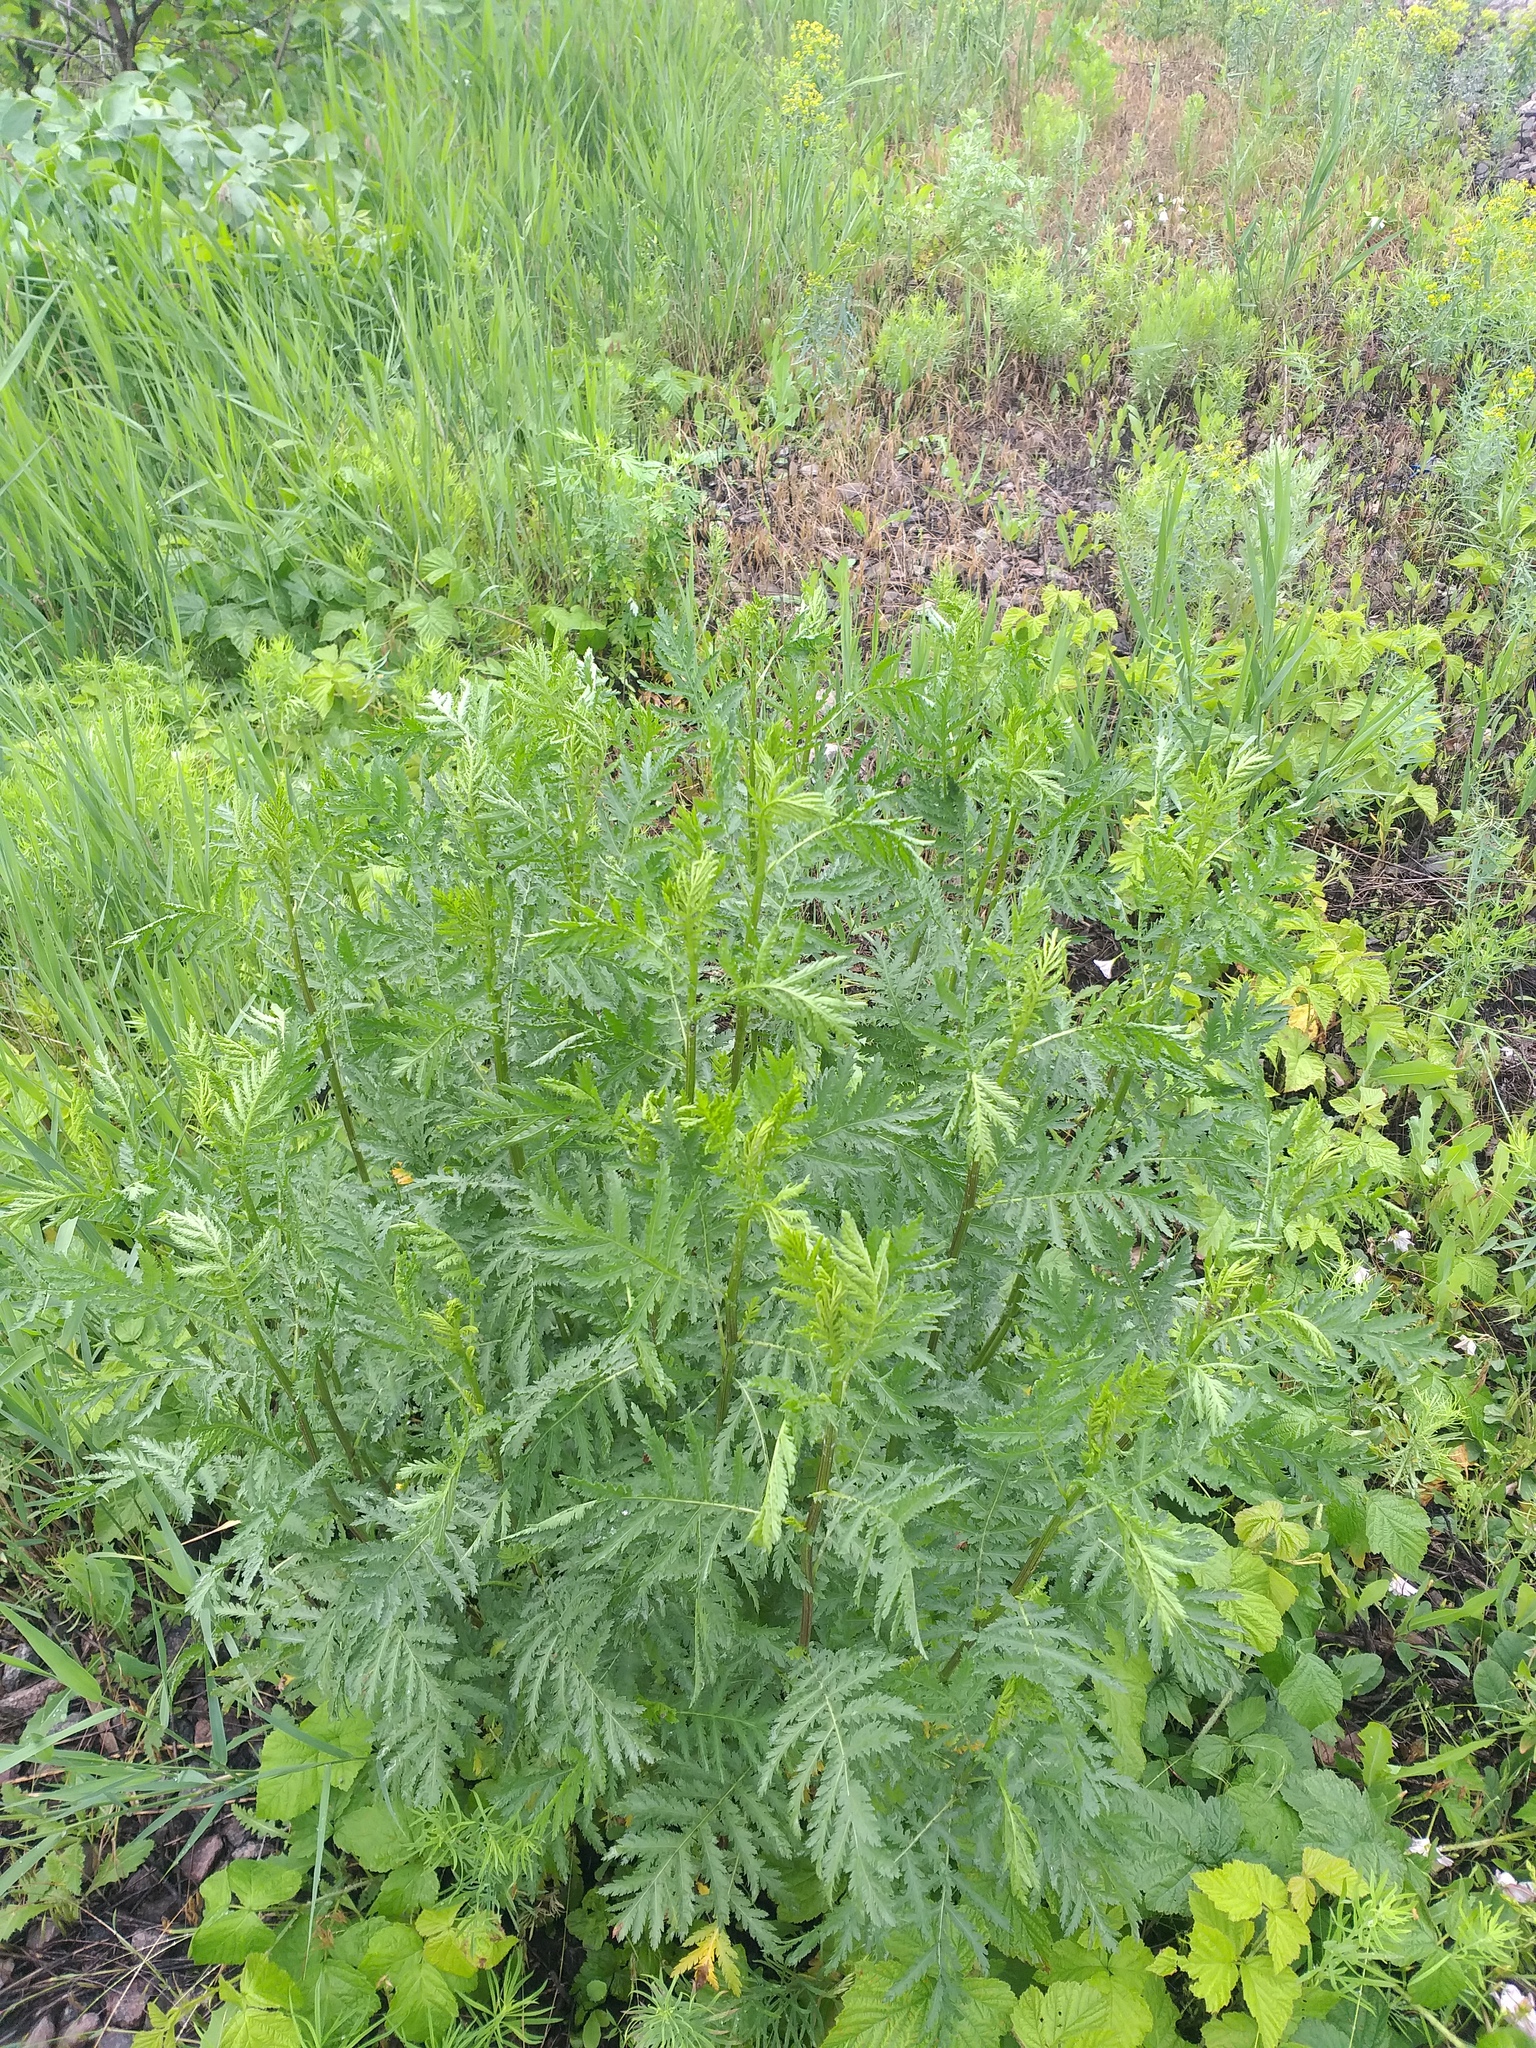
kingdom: Plantae
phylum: Tracheophyta
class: Magnoliopsida
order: Asterales
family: Asteraceae
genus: Tanacetum
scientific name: Tanacetum vulgare
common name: Common tansy
